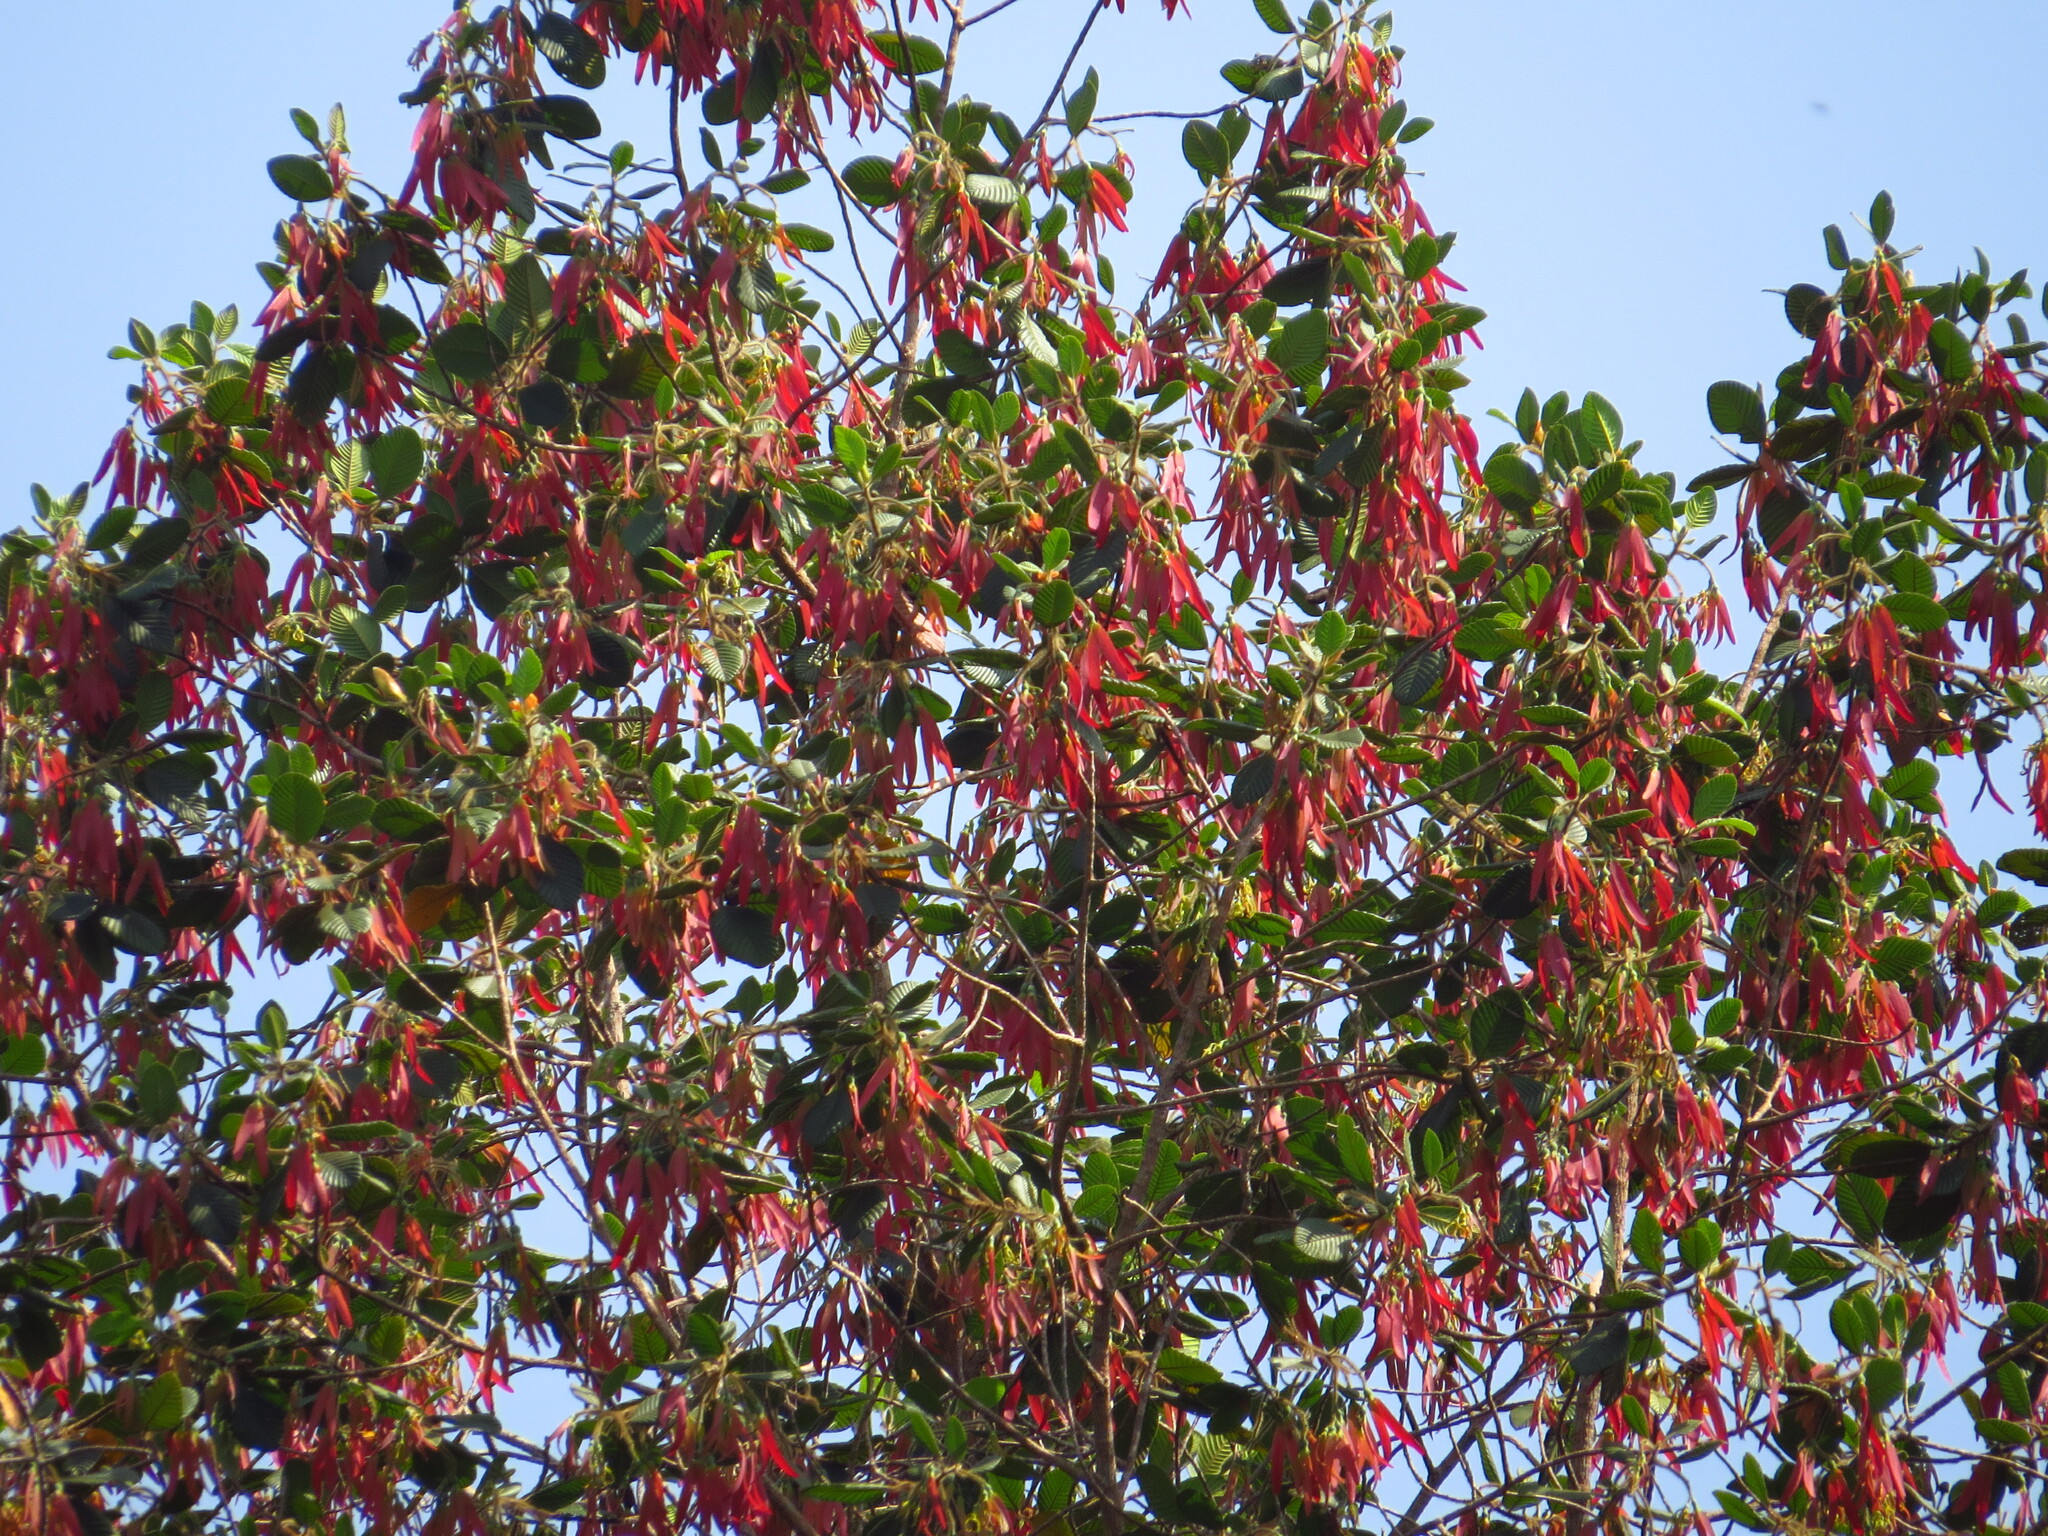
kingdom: Plantae
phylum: Tracheophyta
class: Magnoliopsida
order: Malvales
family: Dipterocarpaceae
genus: Dipterocarpus
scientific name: Dipterocarpus crinitus
